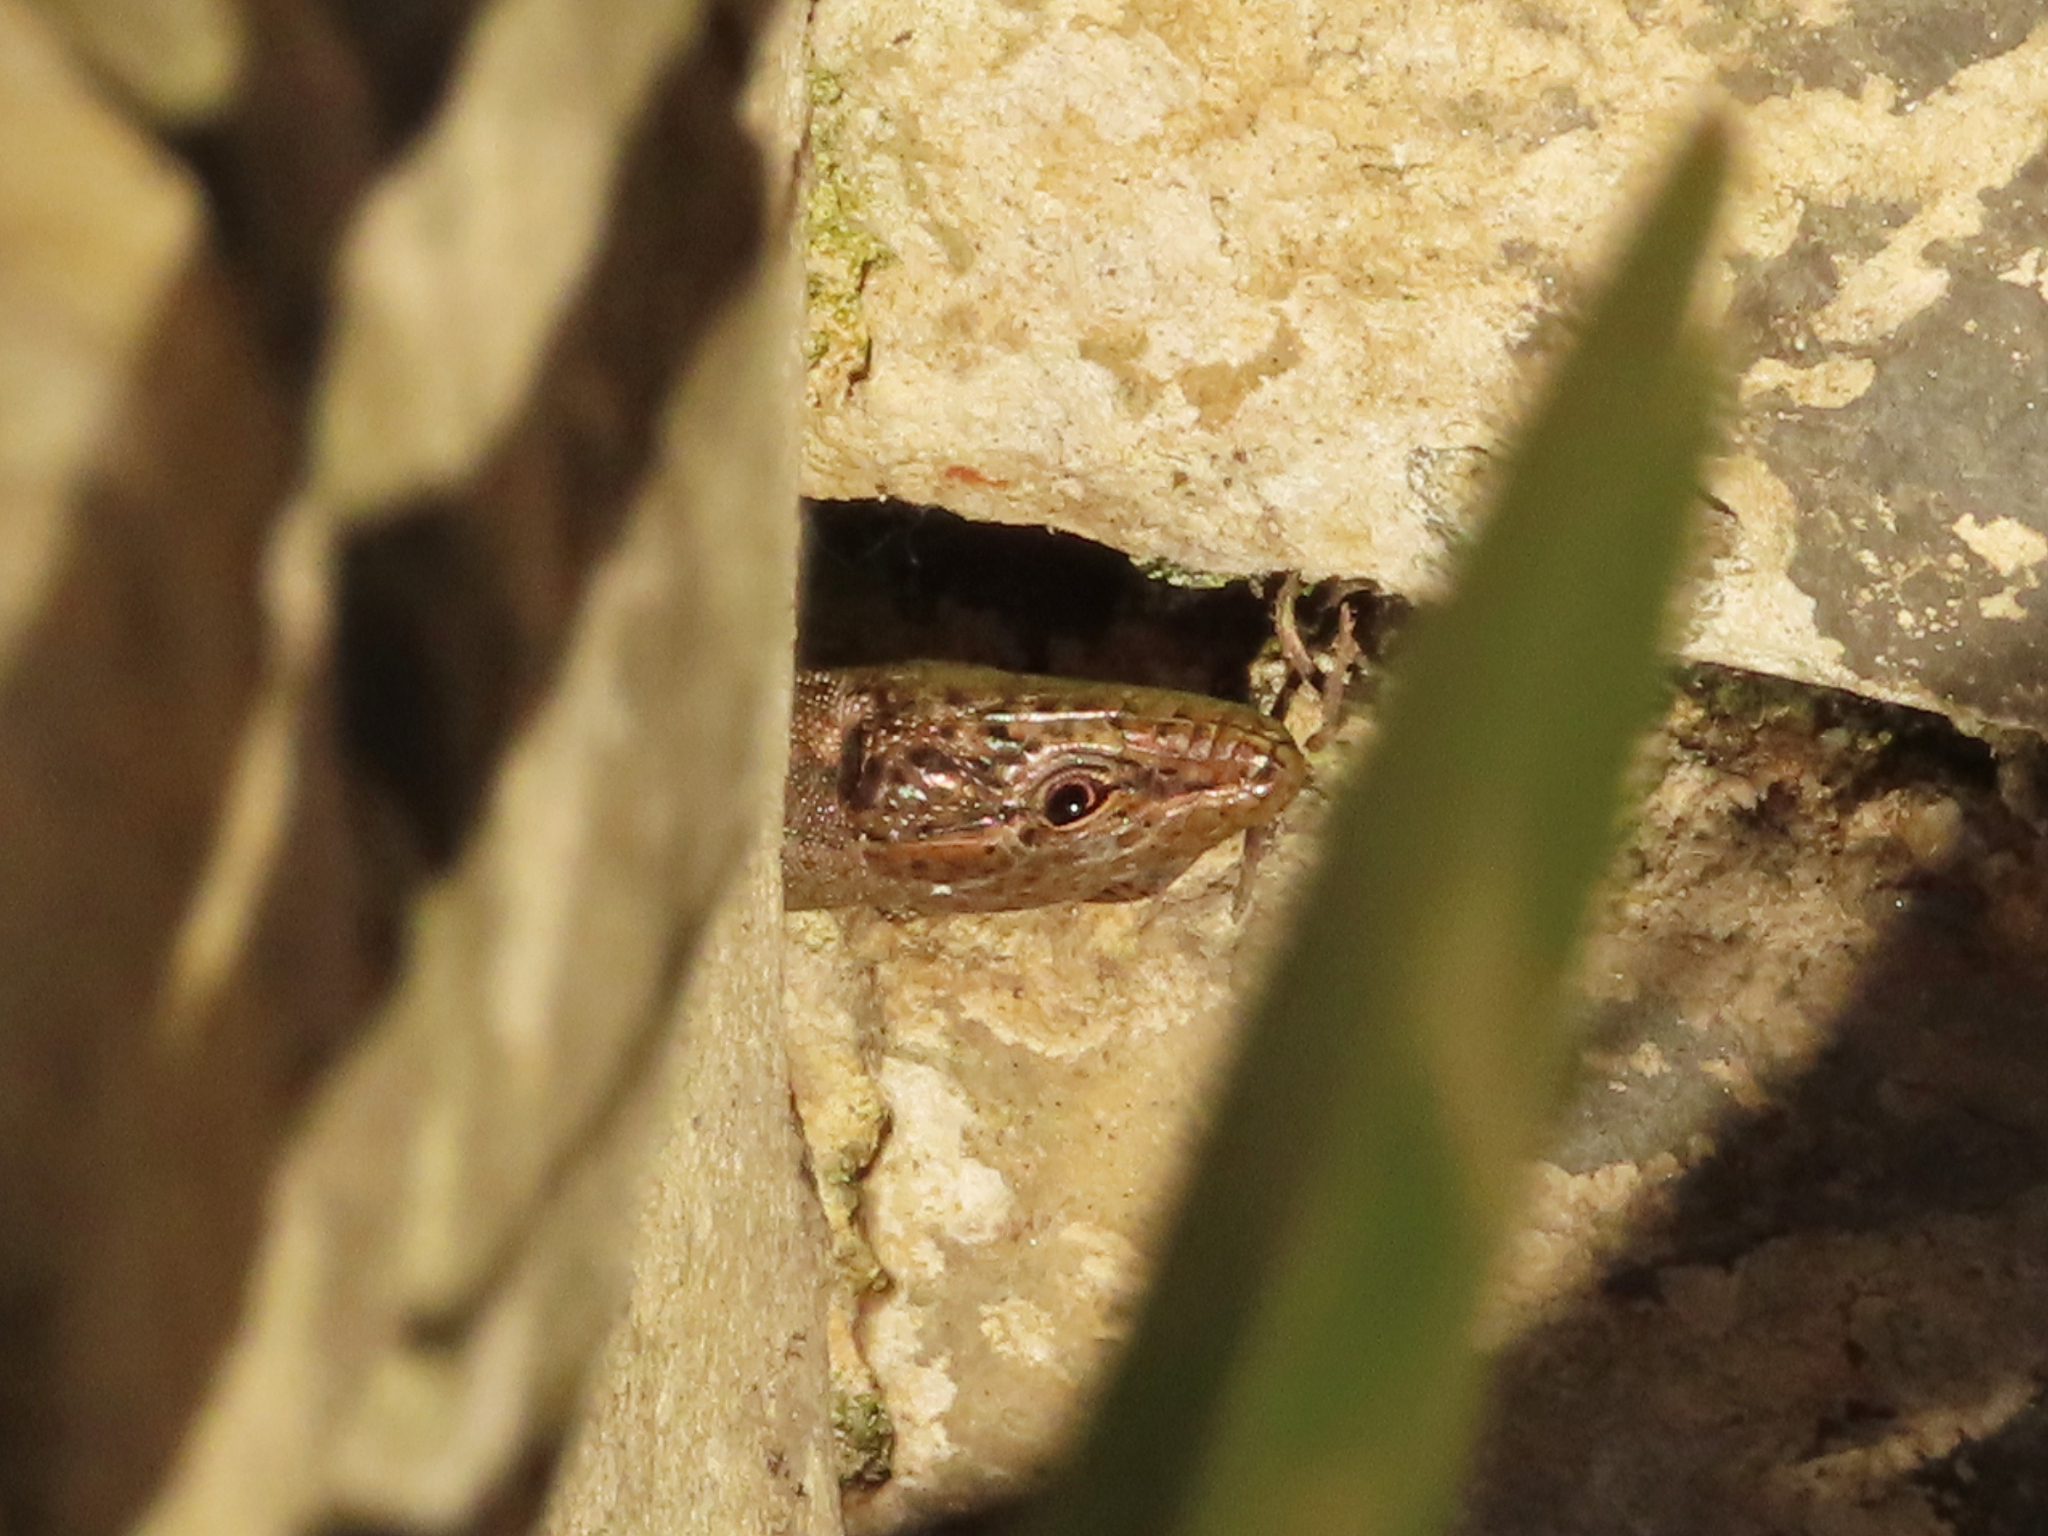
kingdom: Animalia
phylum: Chordata
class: Squamata
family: Lacertidae
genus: Darevskia
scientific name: Darevskia mixta
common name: Ajarian lizard
